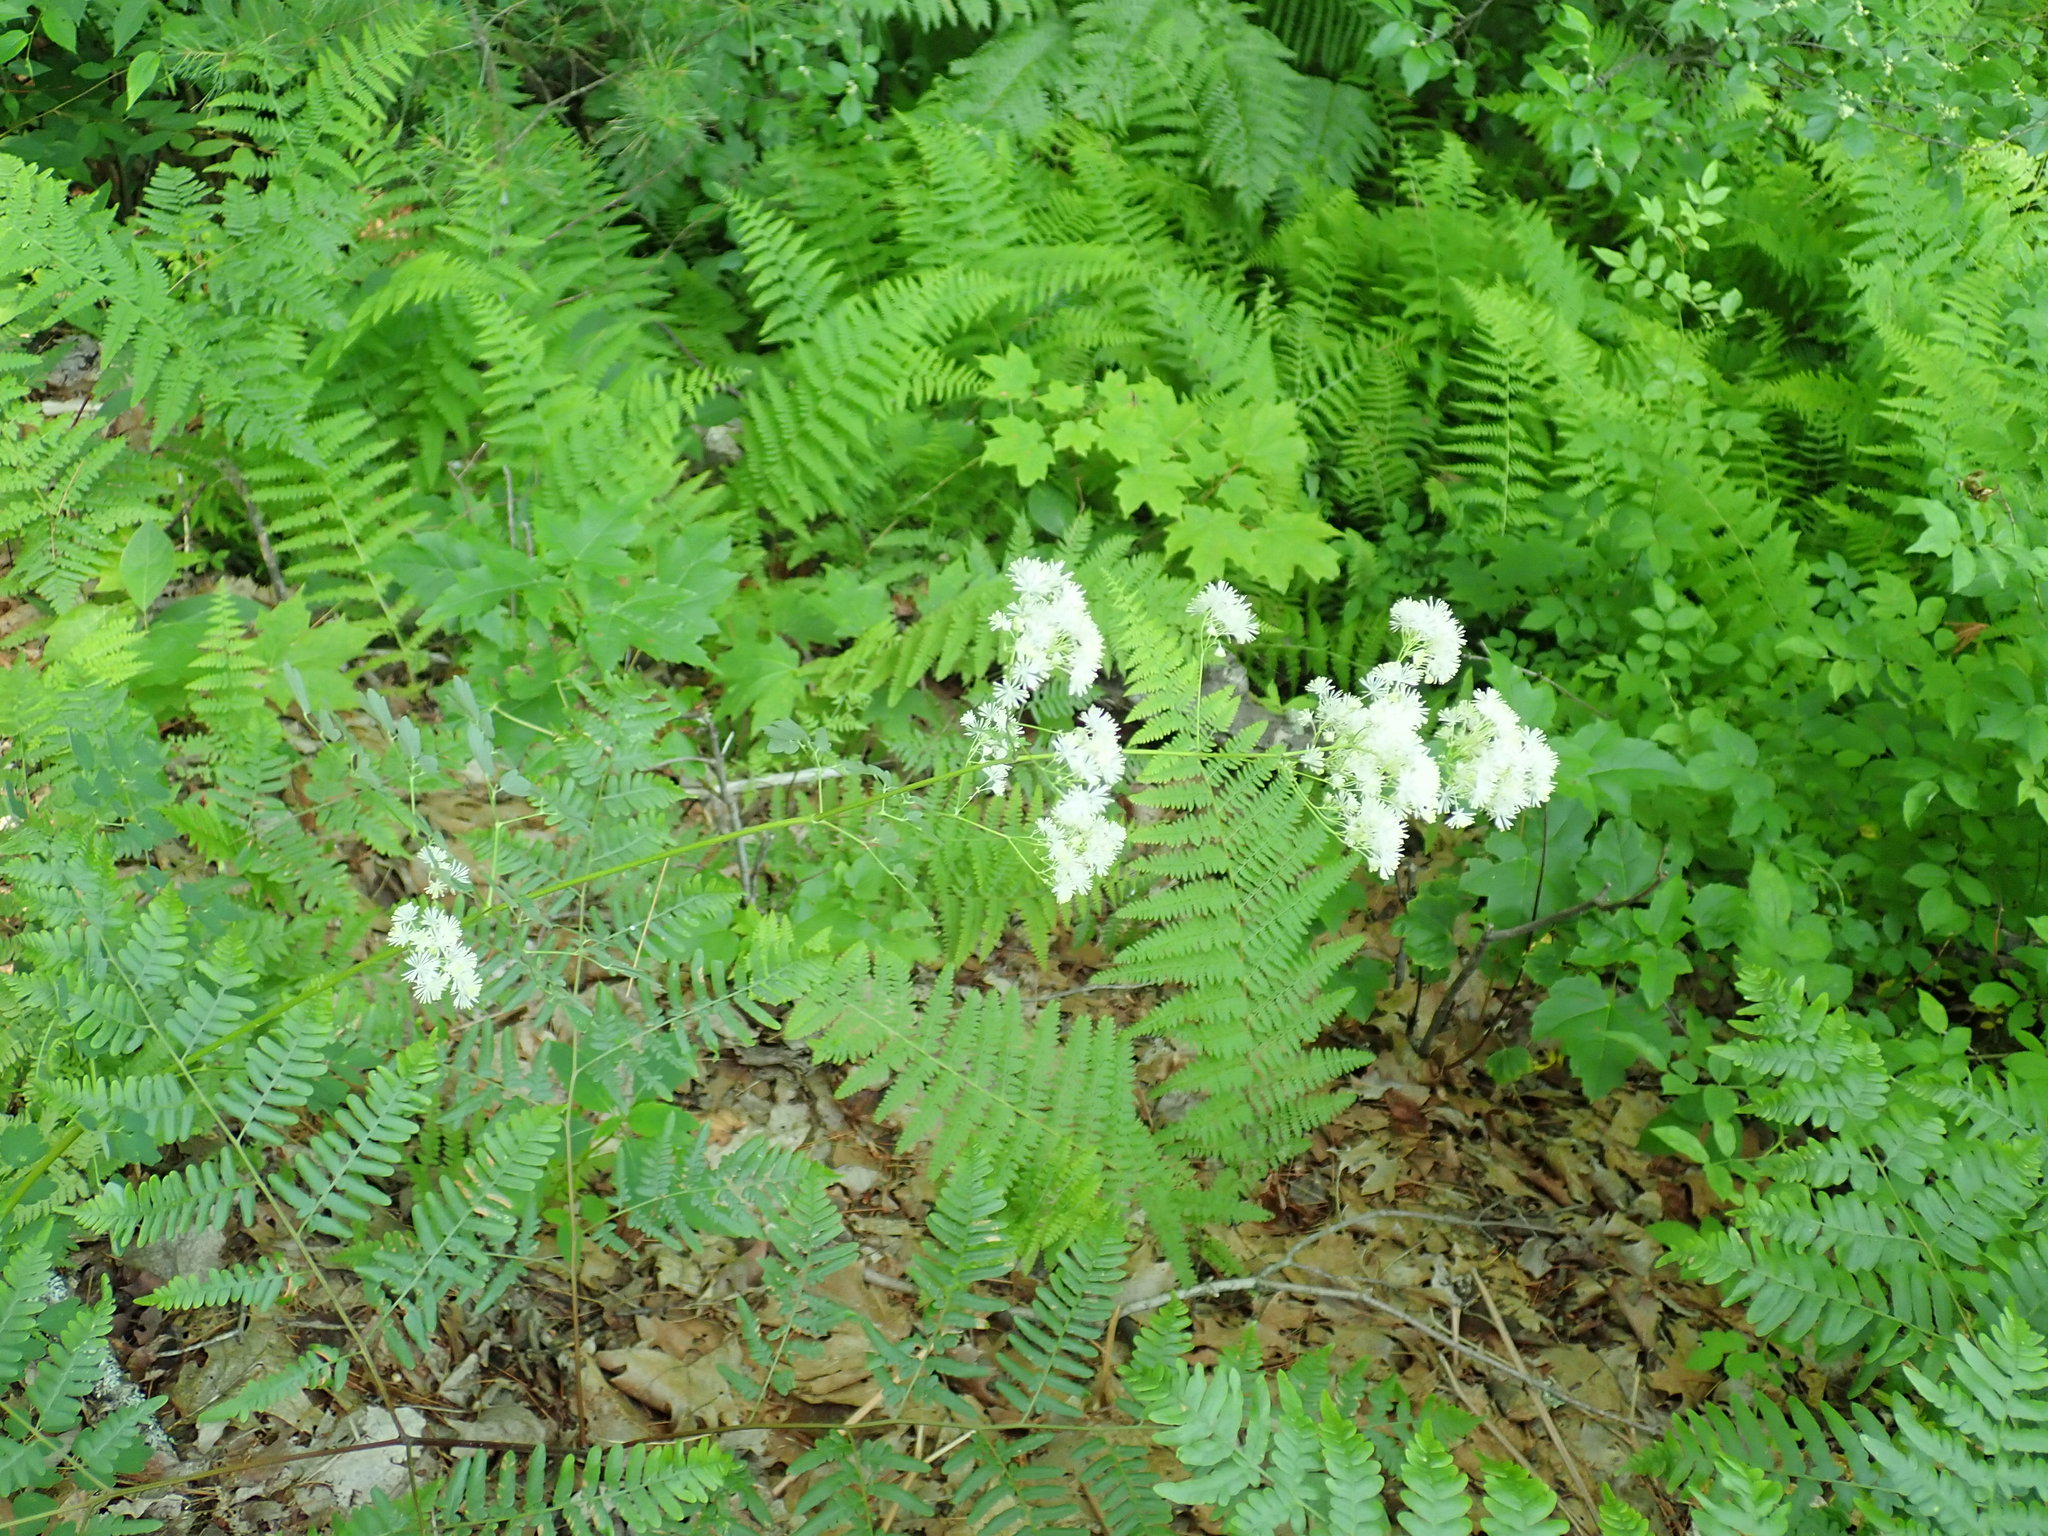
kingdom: Plantae
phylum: Tracheophyta
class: Magnoliopsida
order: Ranunculales
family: Ranunculaceae
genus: Thalictrum
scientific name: Thalictrum pubescens
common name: King-of-the-meadow
